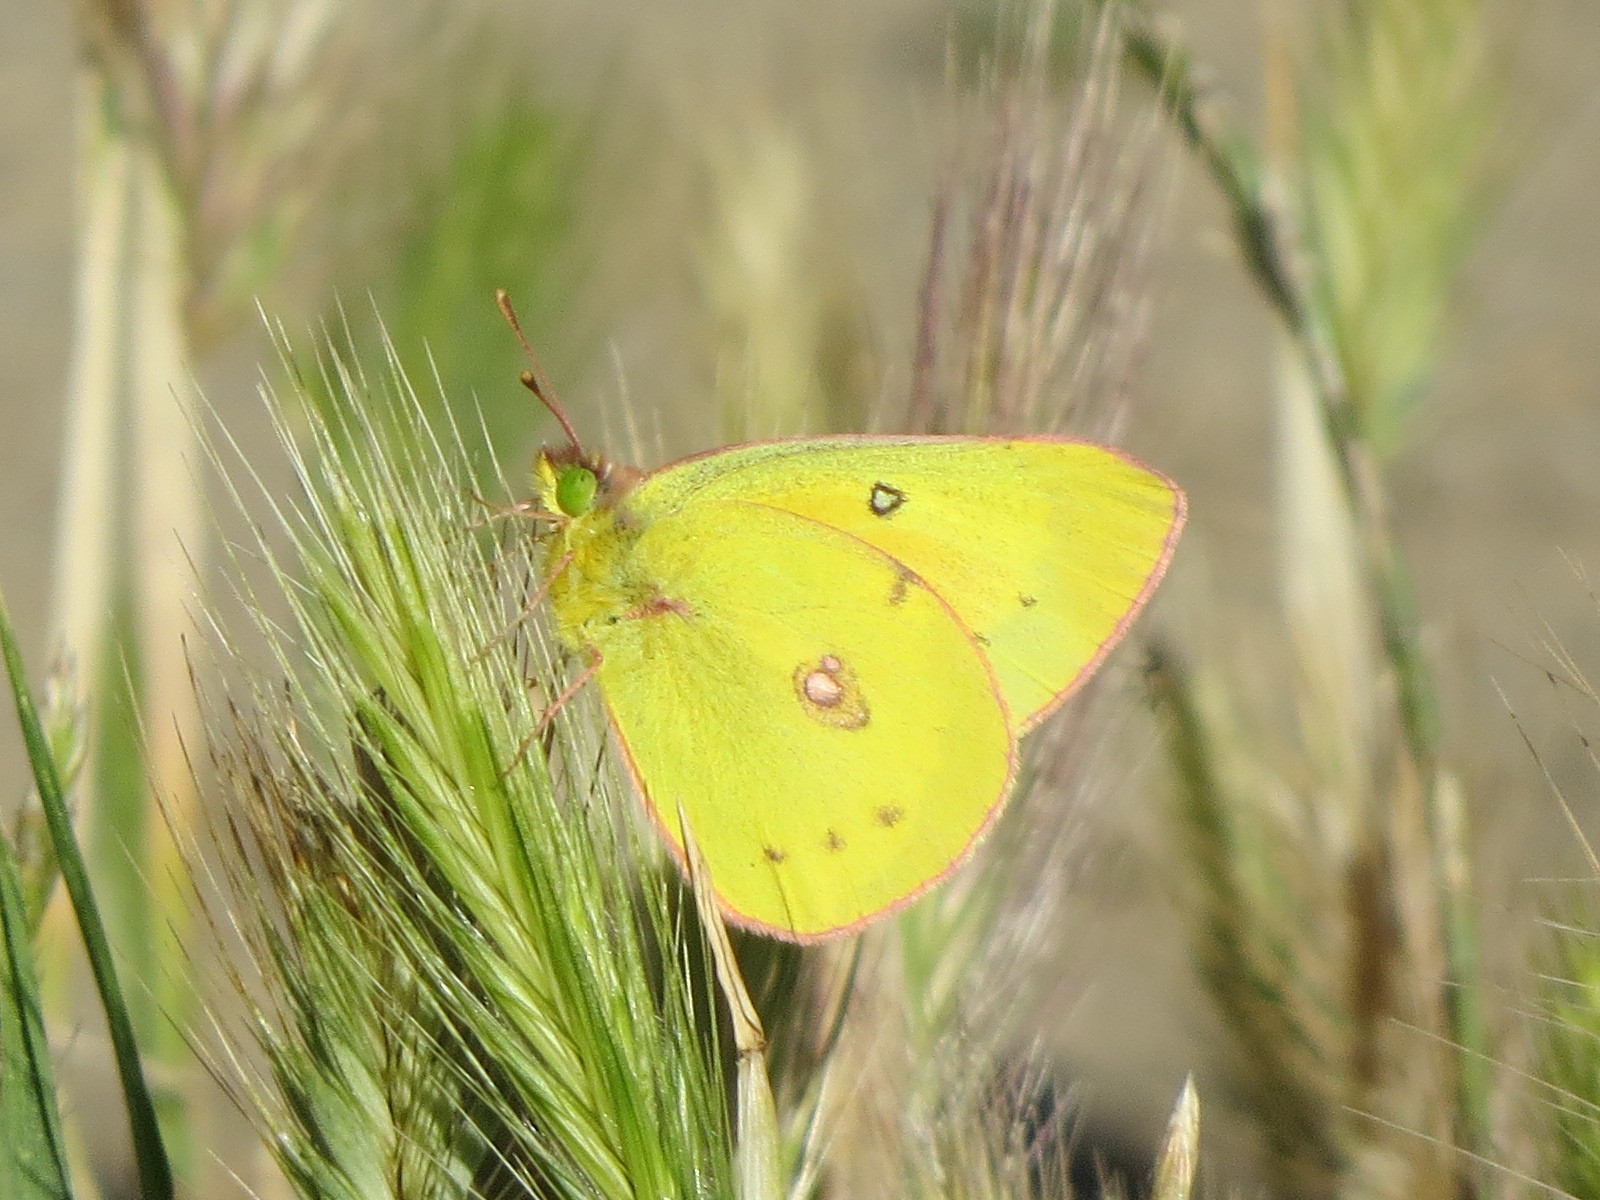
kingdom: Animalia
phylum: Arthropoda
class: Insecta
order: Lepidoptera
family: Pieridae
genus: Colias
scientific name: Colias eurytheme
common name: Alfalfa butterfly
